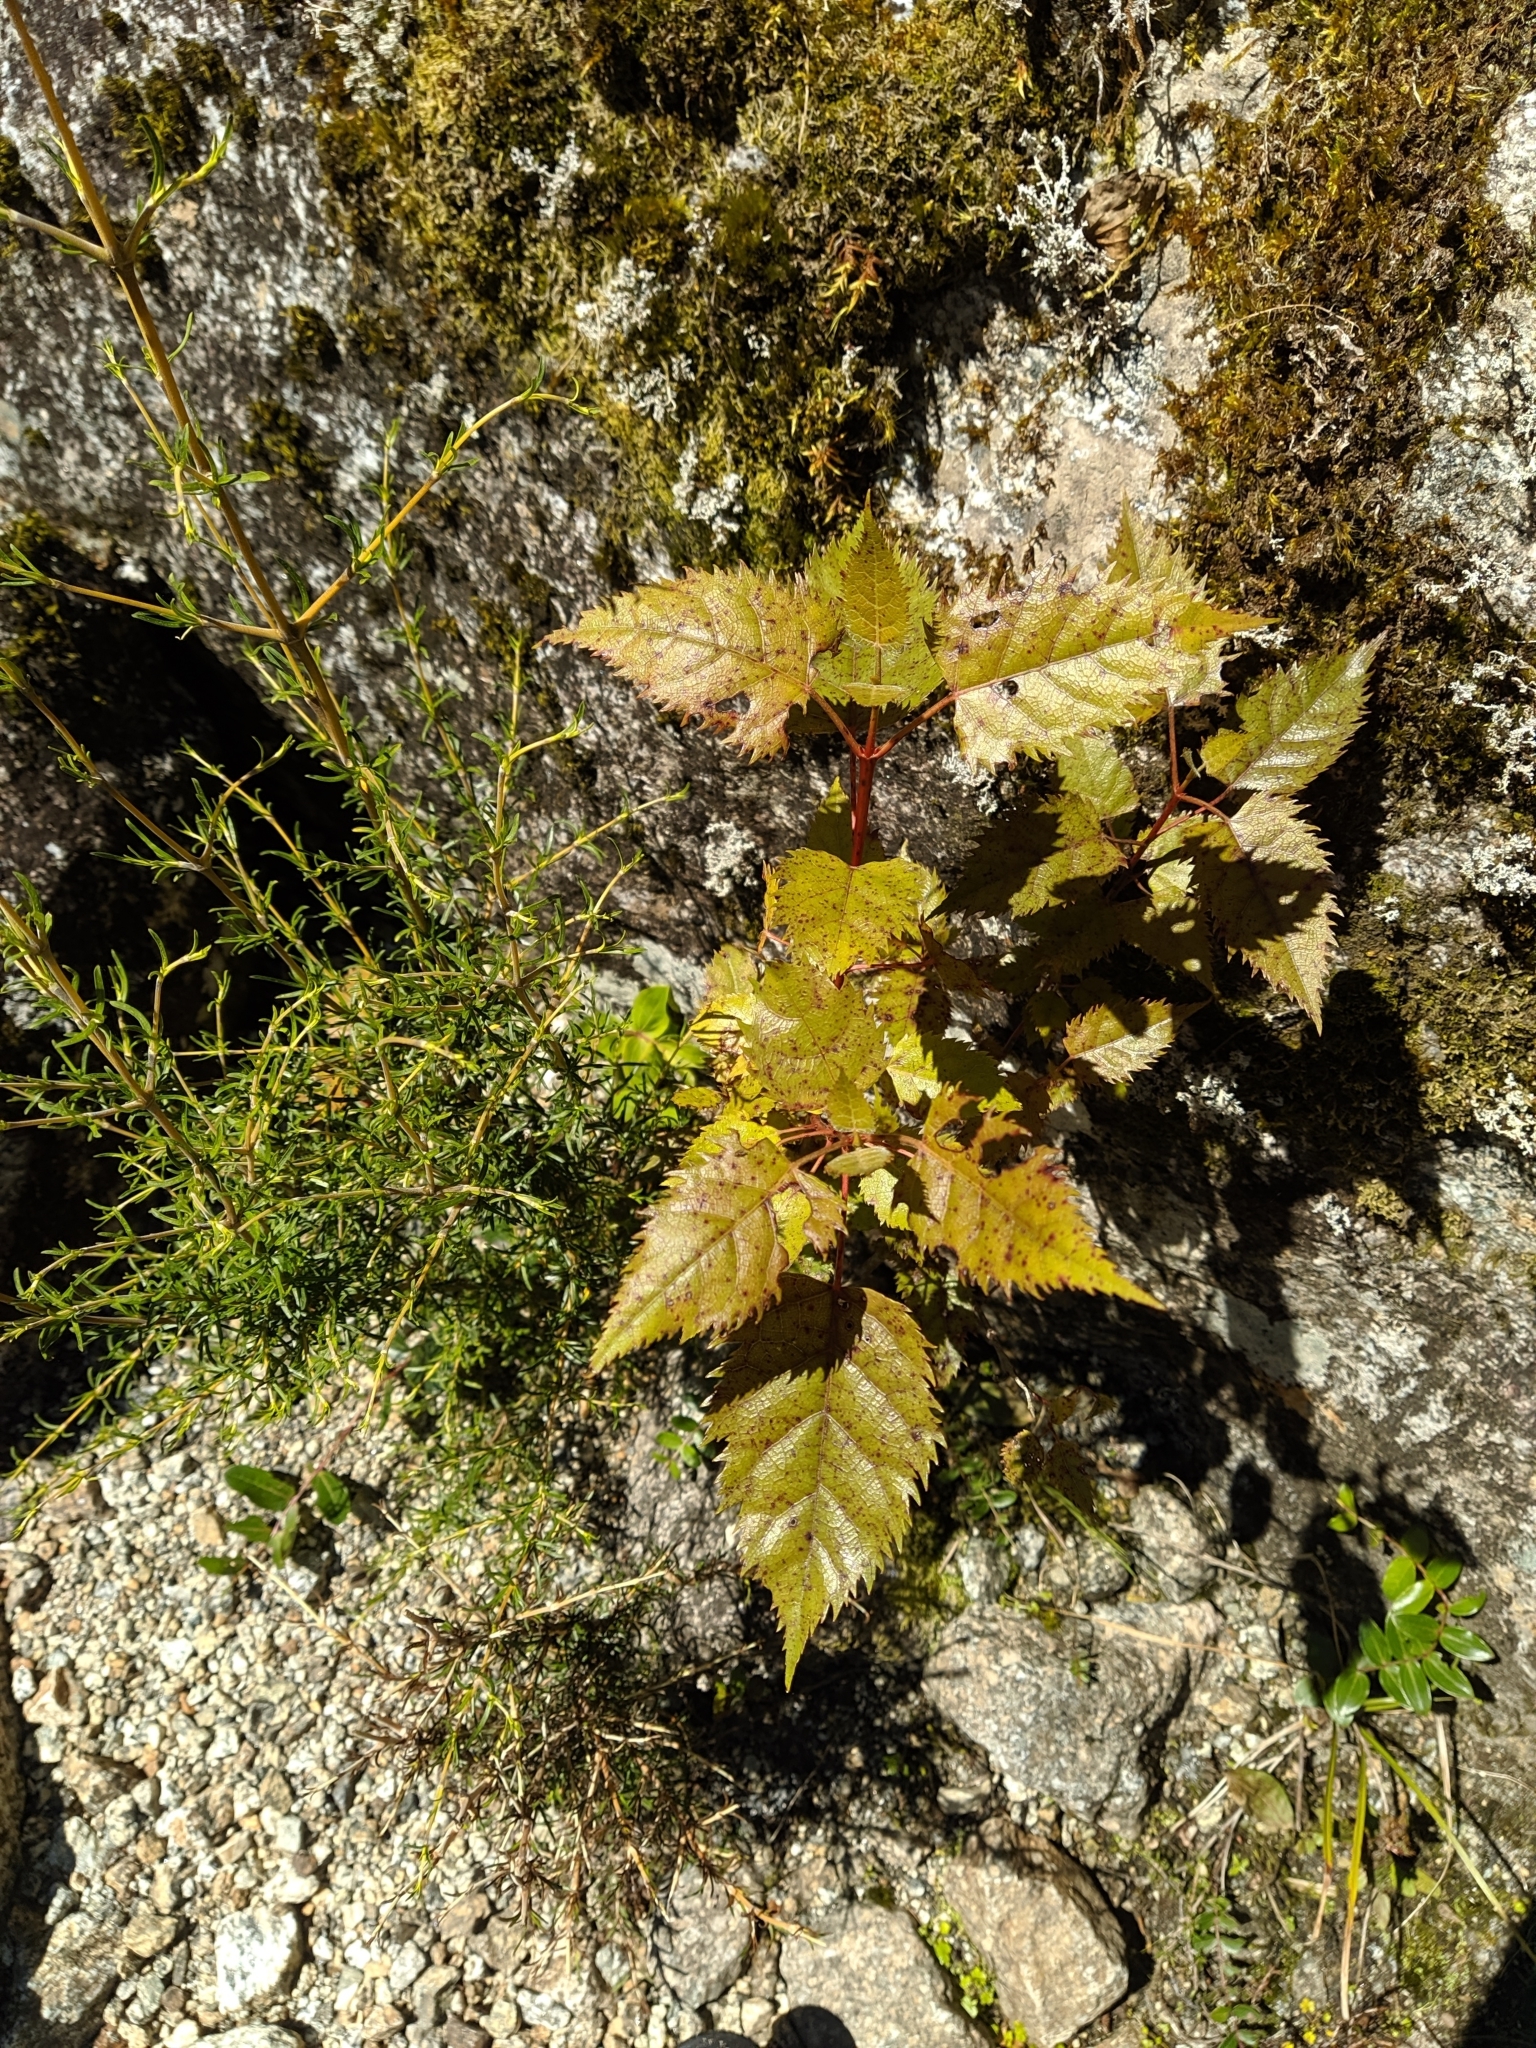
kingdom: Plantae
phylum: Tracheophyta
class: Magnoliopsida
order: Oxalidales
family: Elaeocarpaceae
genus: Aristotelia
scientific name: Aristotelia serrata
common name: New zealand wineberry
